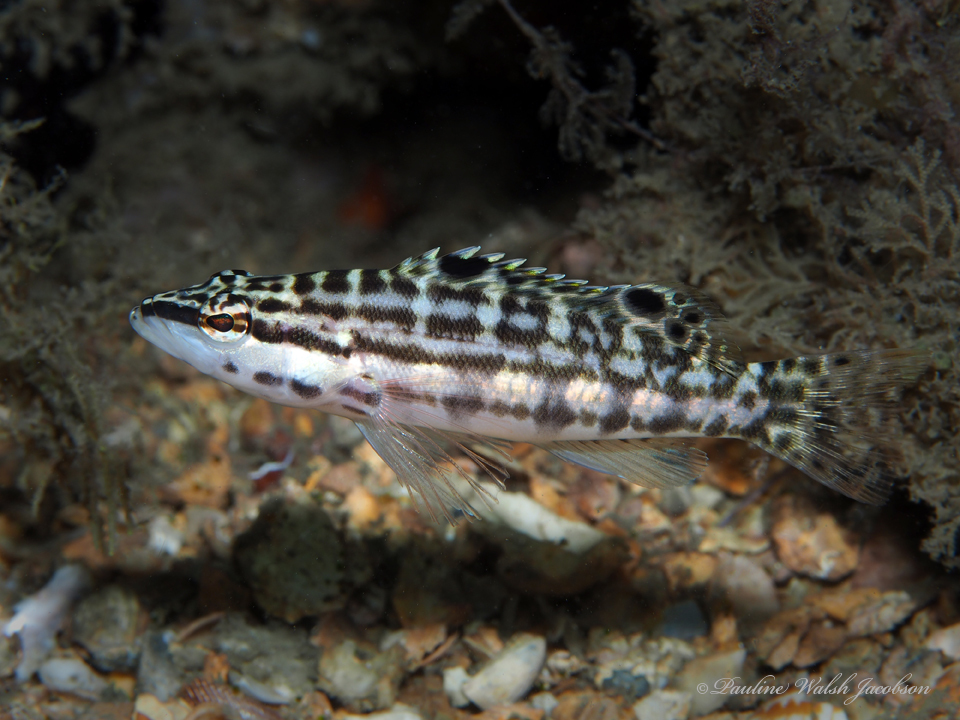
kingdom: Animalia
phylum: Chordata
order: Perciformes
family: Serranidae
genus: Serranus
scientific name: Serranus tigrinus
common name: Harlequin bass
